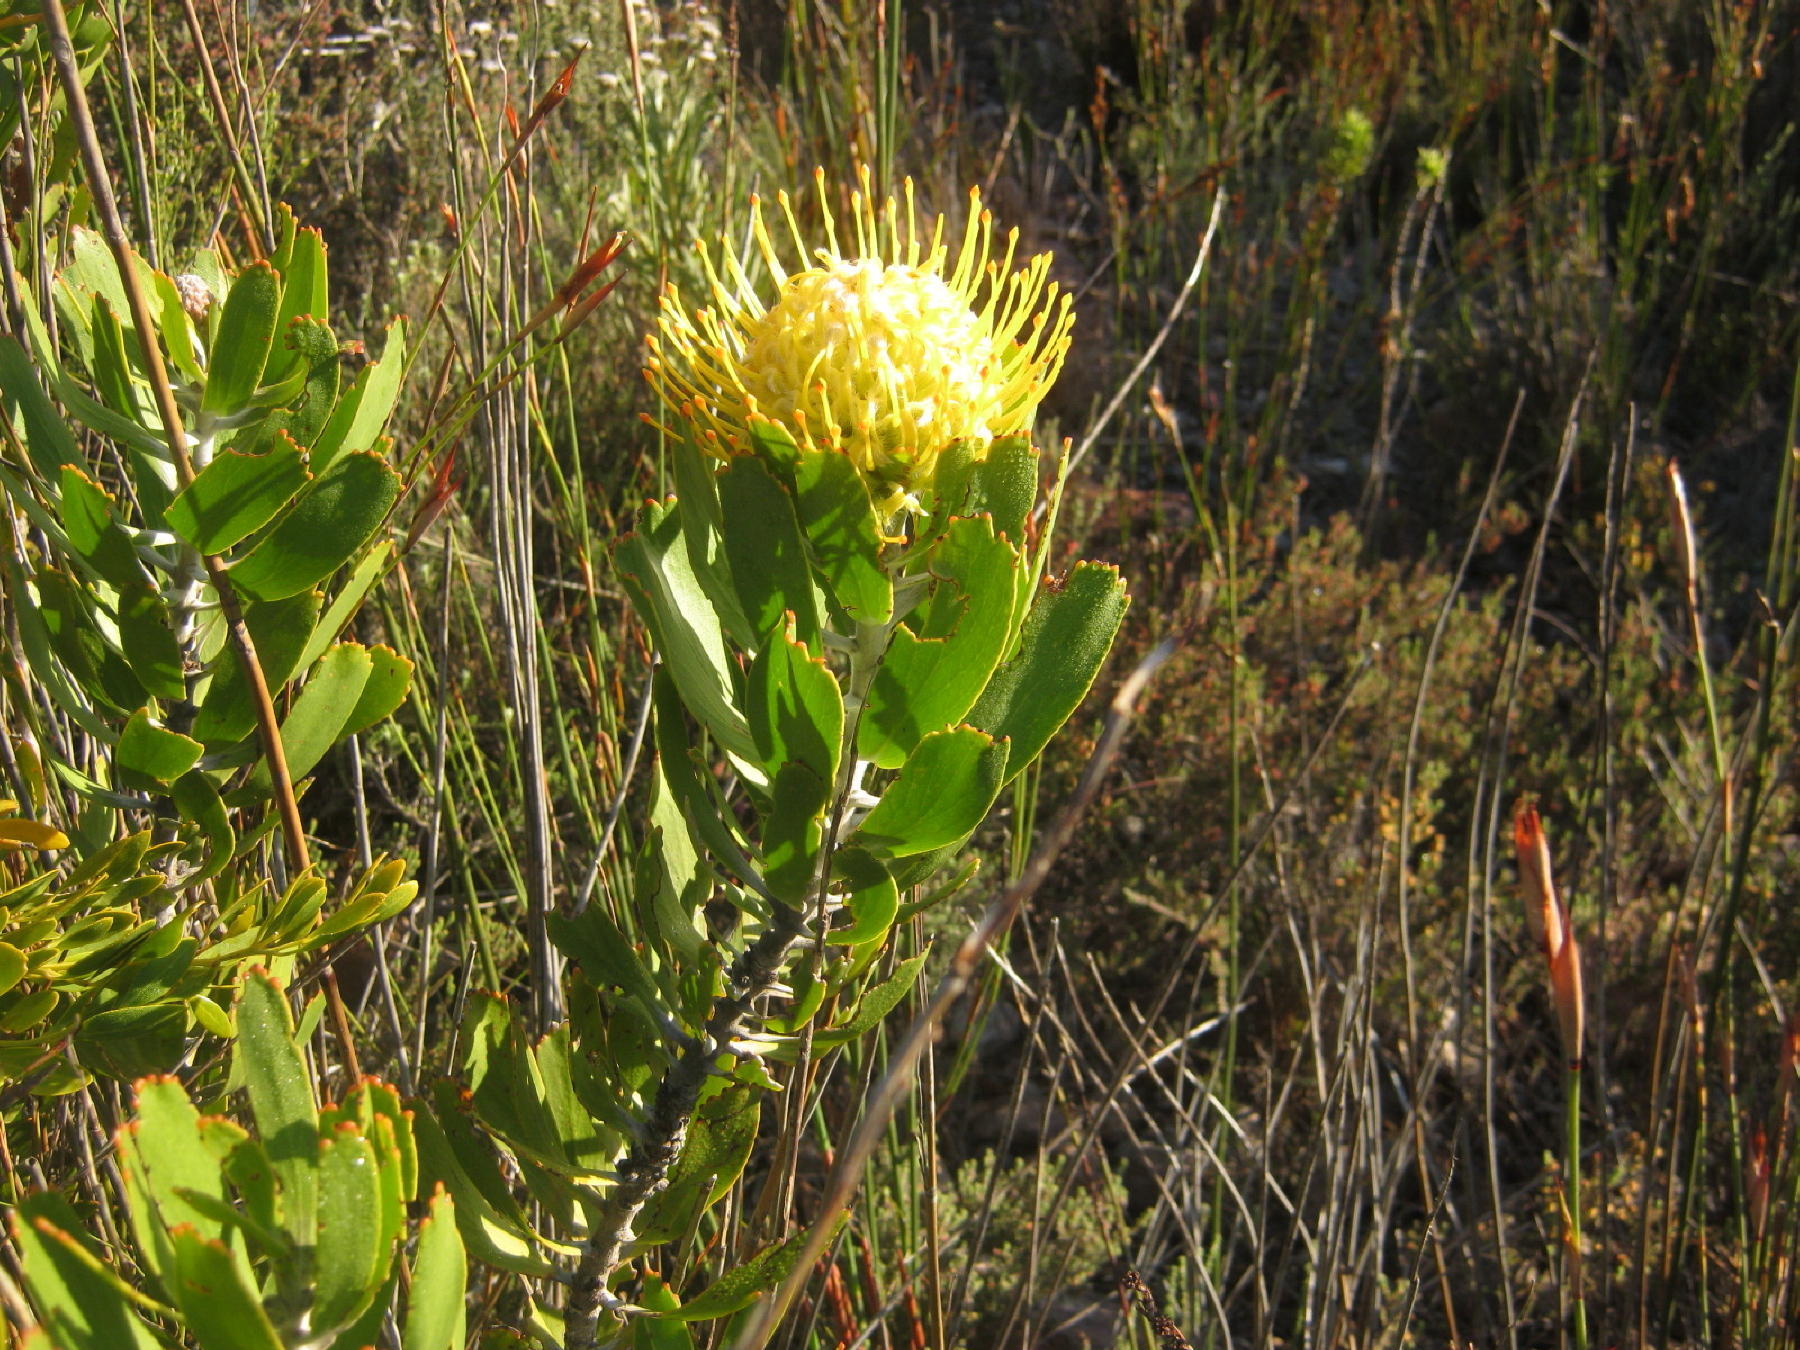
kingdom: Plantae
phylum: Tracheophyta
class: Magnoliopsida
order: Proteales
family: Proteaceae
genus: Leucospermum
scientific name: Leucospermum cuneiforme
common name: Common pincushion
